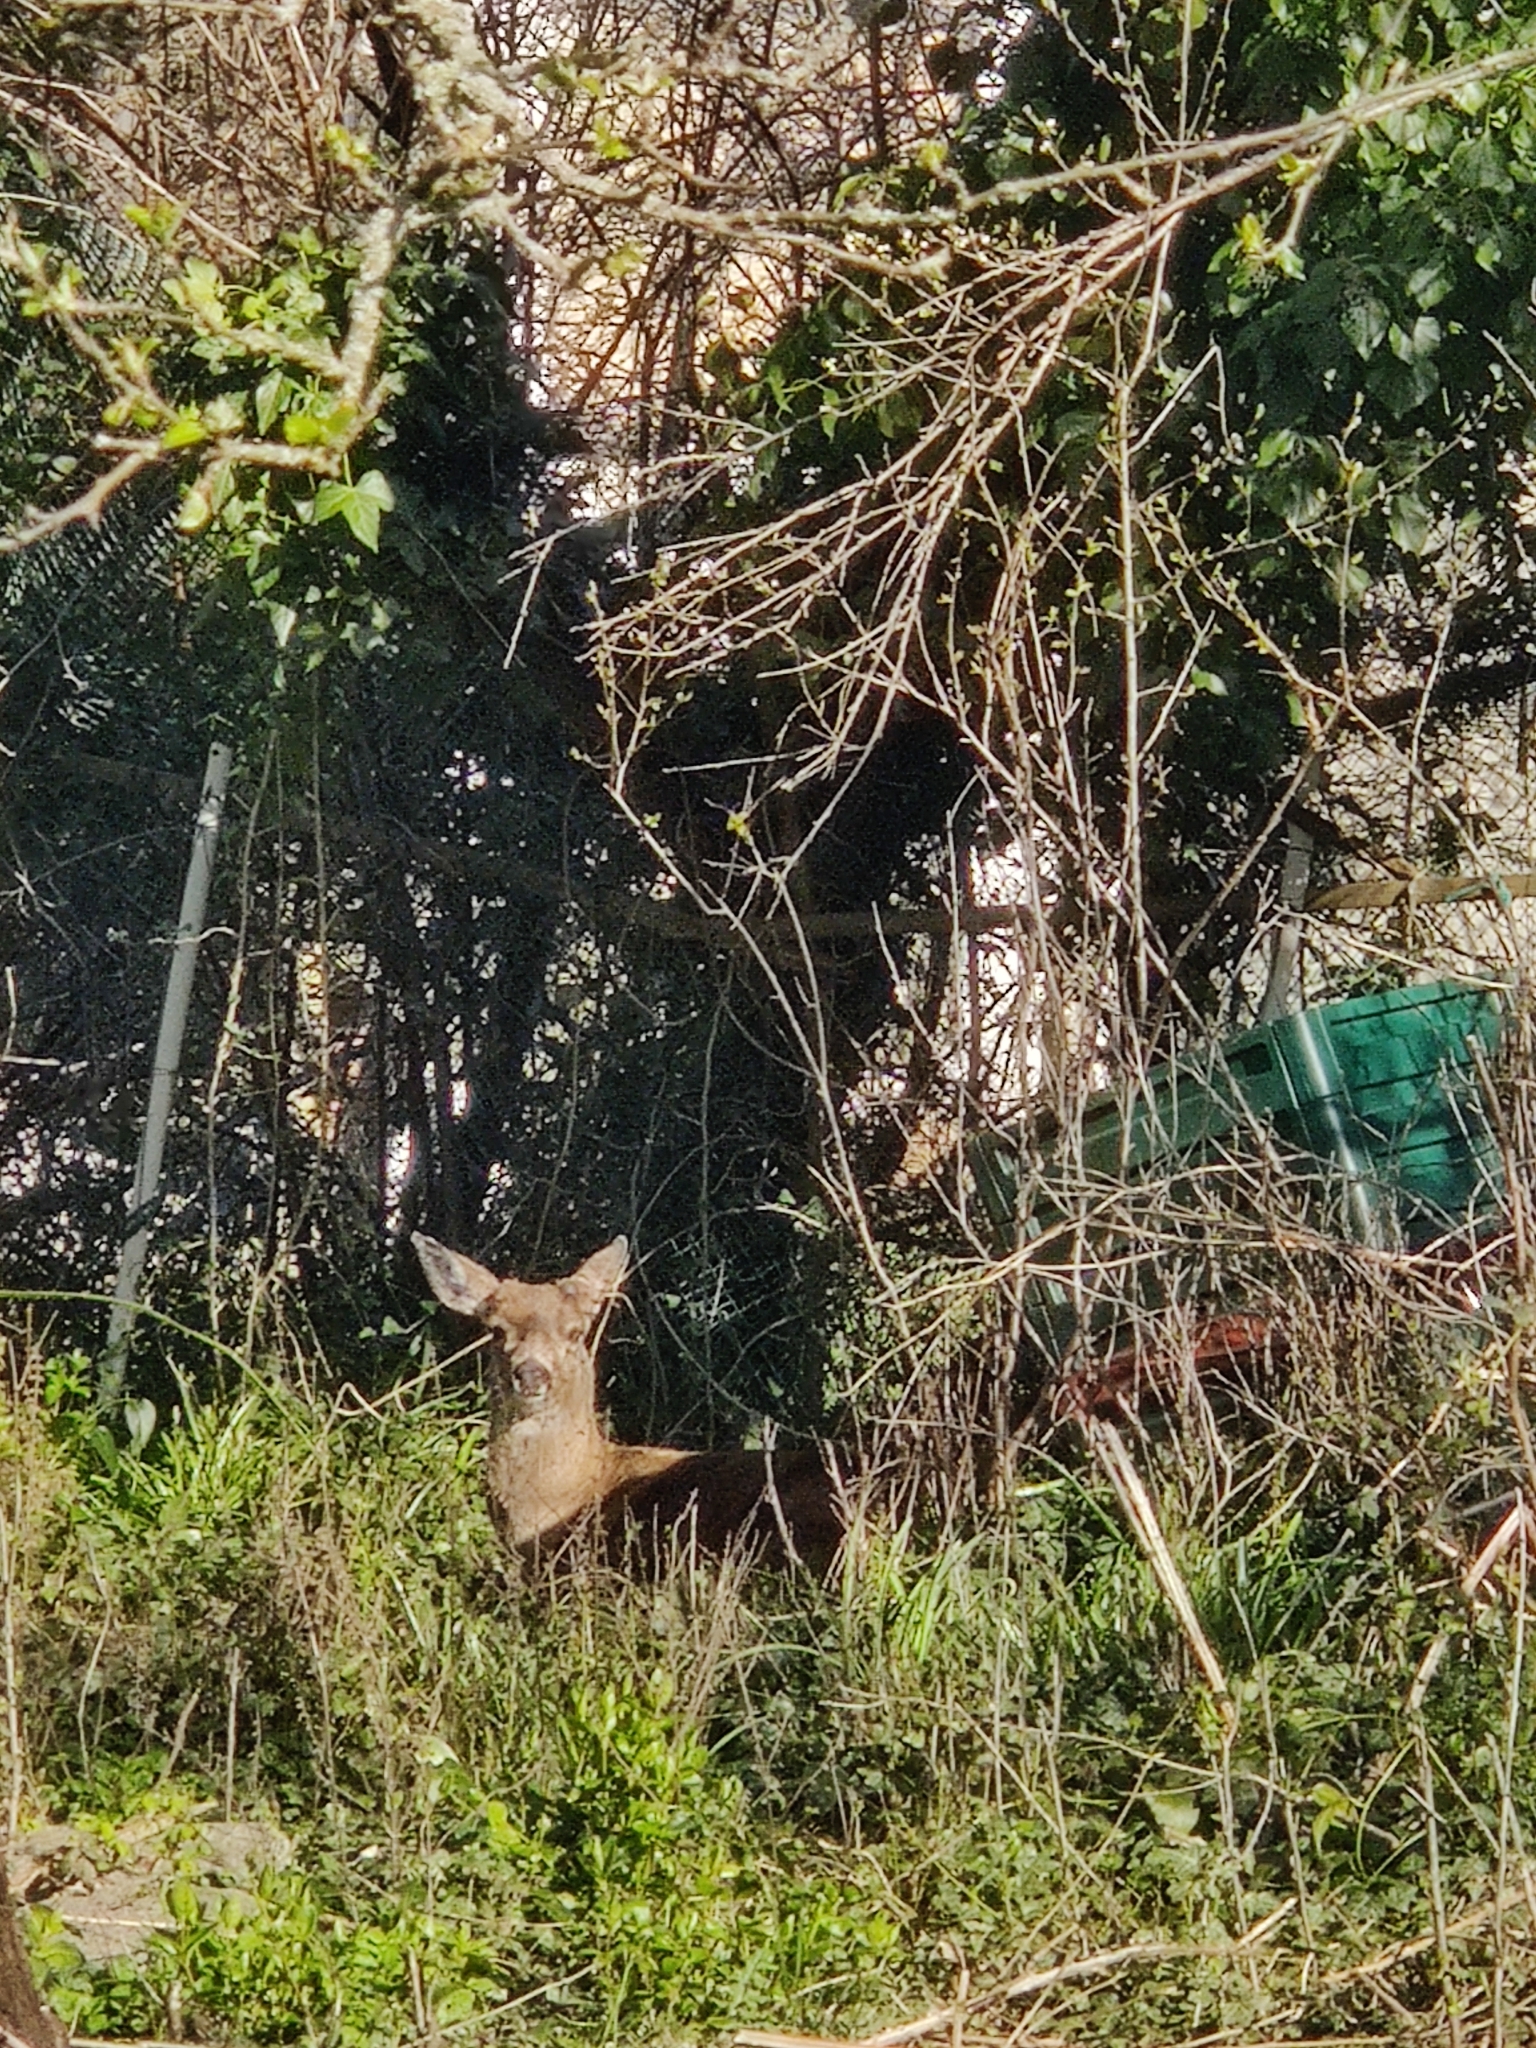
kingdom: Animalia
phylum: Chordata
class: Mammalia
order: Artiodactyla
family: Cervidae
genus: Odocoileus
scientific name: Odocoileus hemionus
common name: Mule deer
